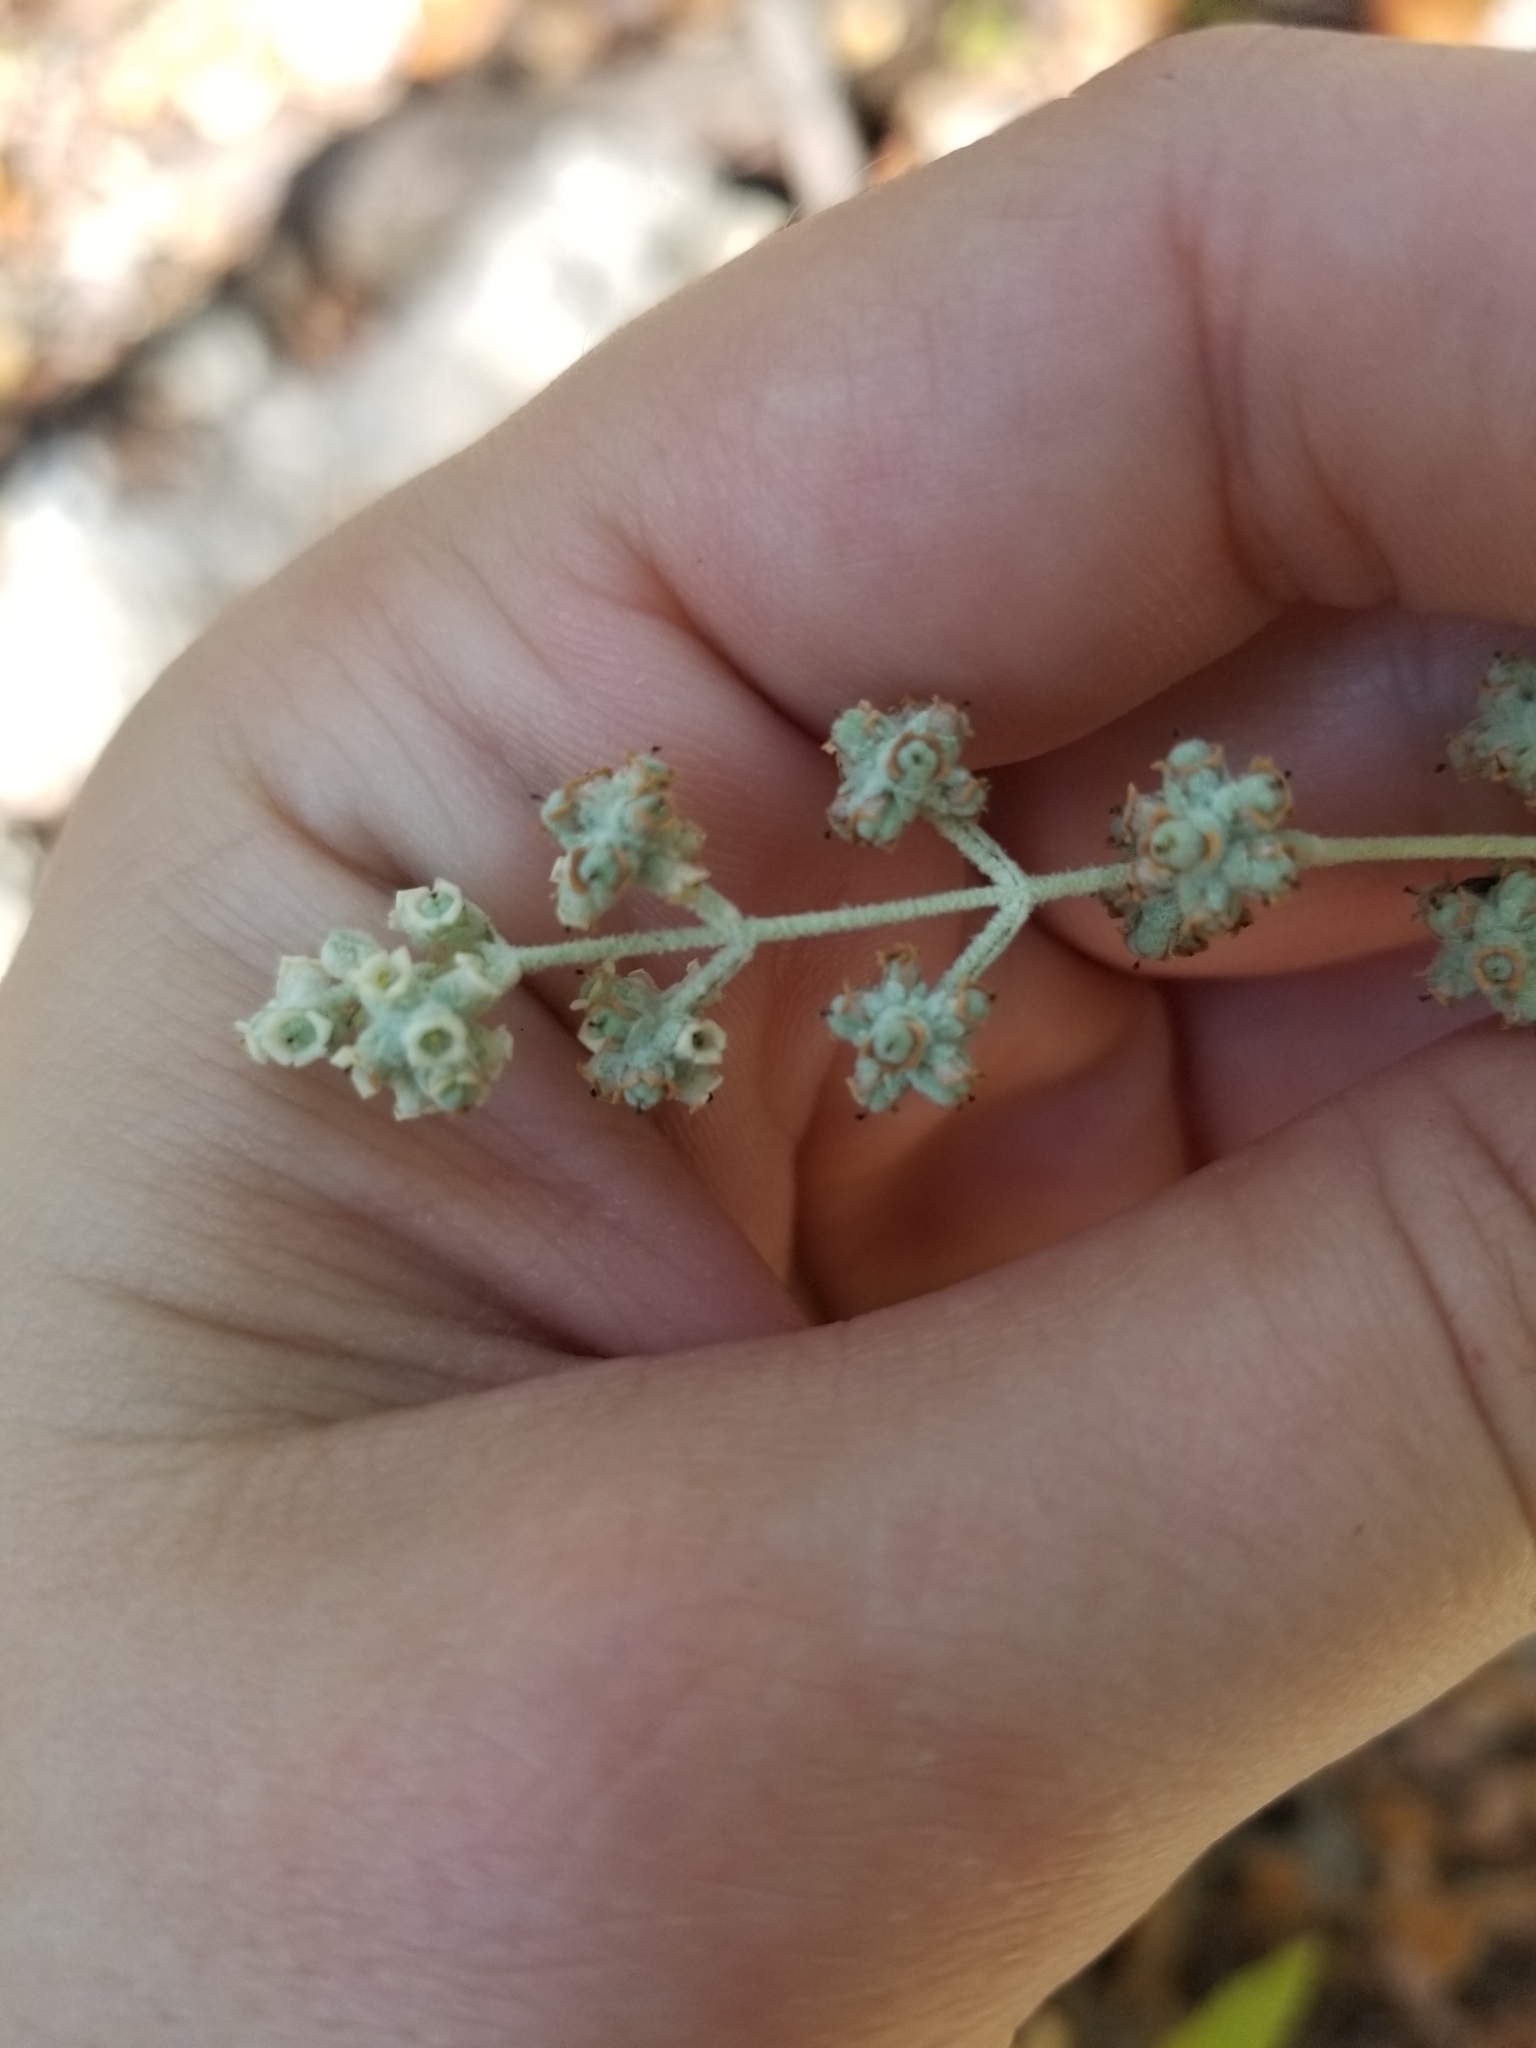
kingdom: Plantae
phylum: Tracheophyta
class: Magnoliopsida
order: Lamiales
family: Scrophulariaceae
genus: Buddleja
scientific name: Buddleja racemosa
